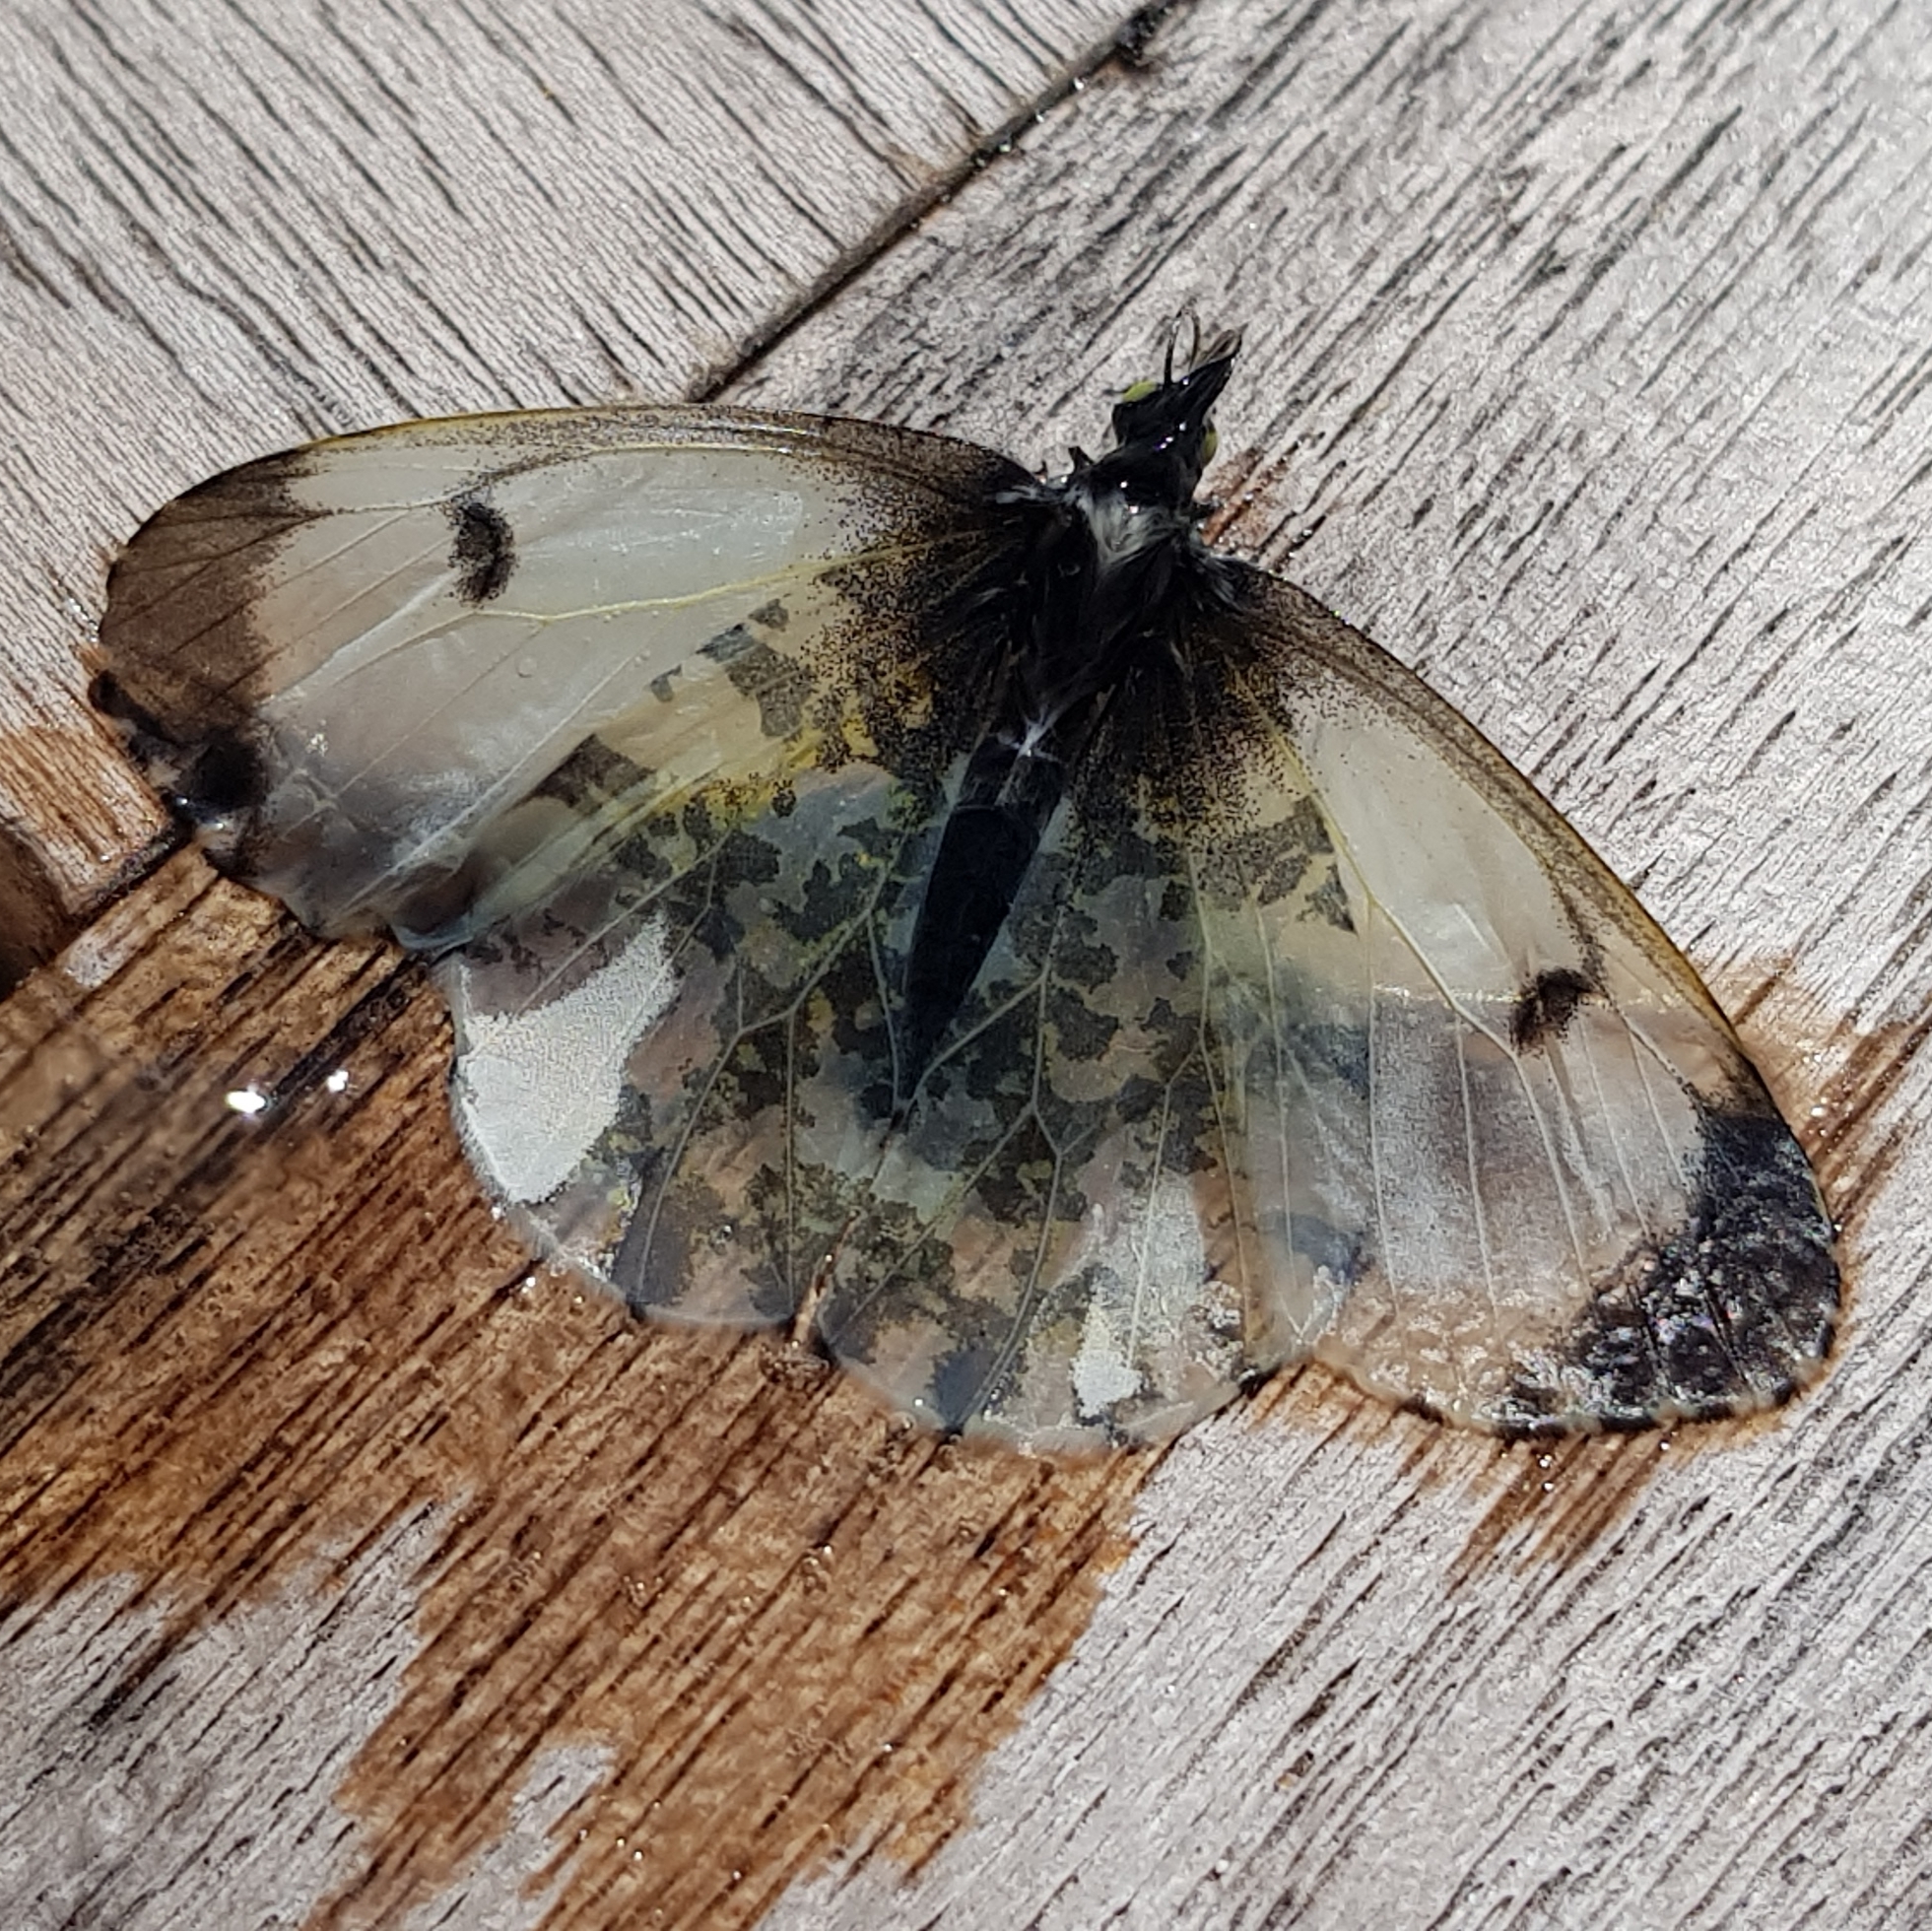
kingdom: Animalia
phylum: Arthropoda
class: Insecta
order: Lepidoptera
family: Pieridae
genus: Anthocharis
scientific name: Anthocharis cardamines
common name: Orange-tip
